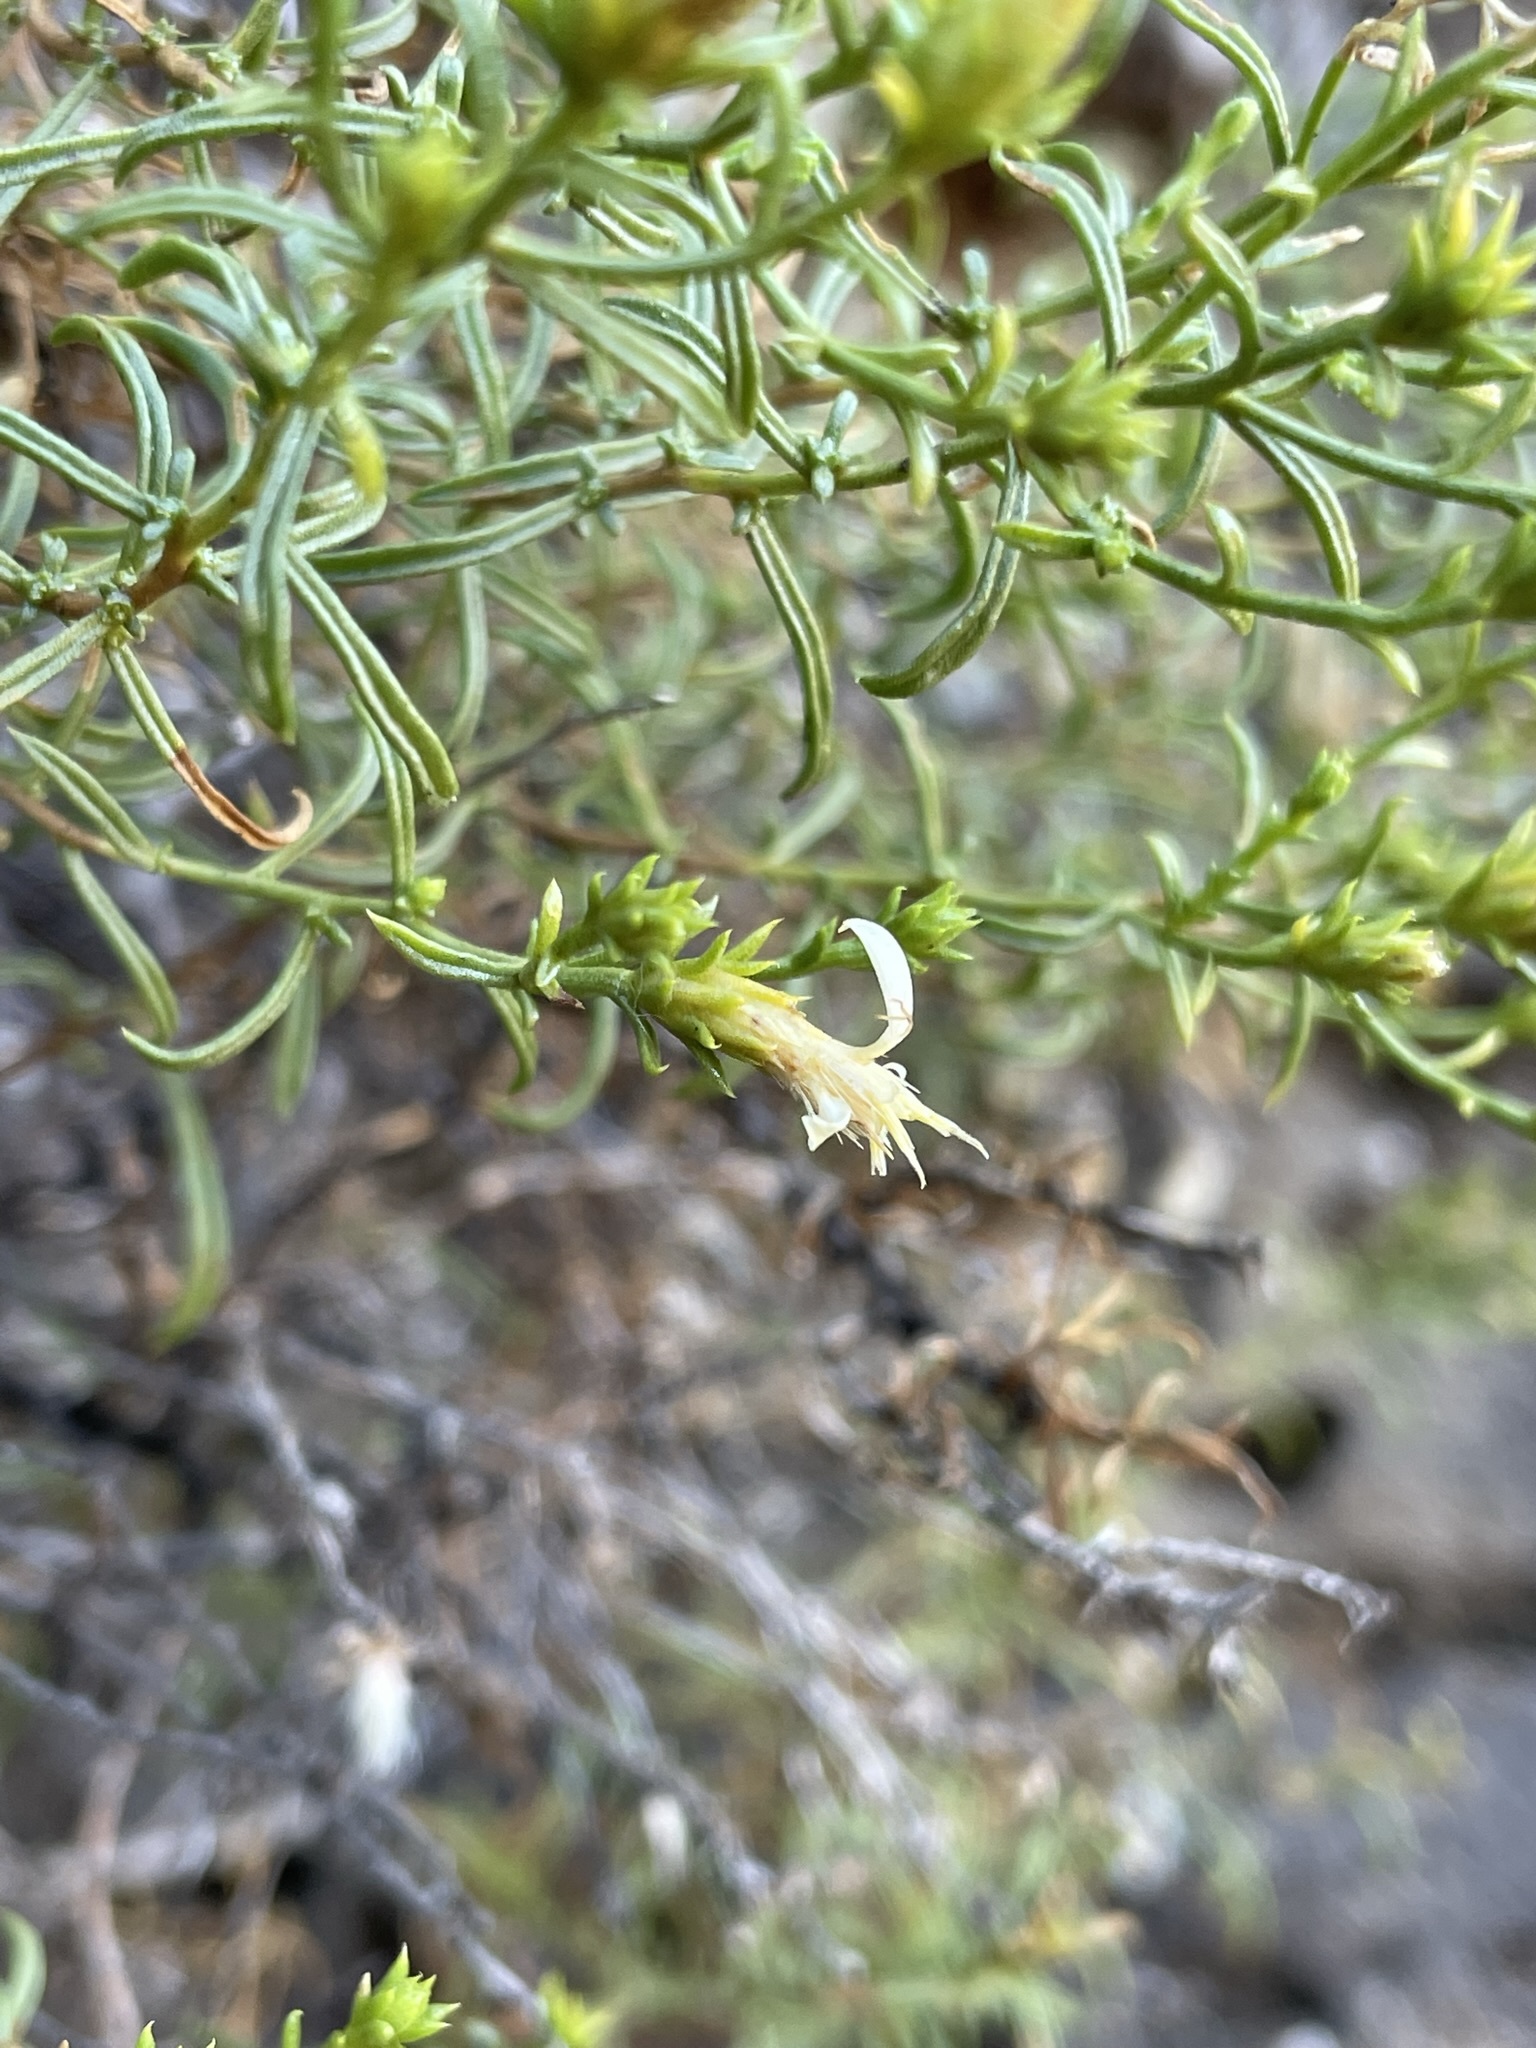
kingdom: Plantae
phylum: Tracheophyta
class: Magnoliopsida
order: Asterales
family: Asteraceae
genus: Ericameria
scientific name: Ericameria resinosa
